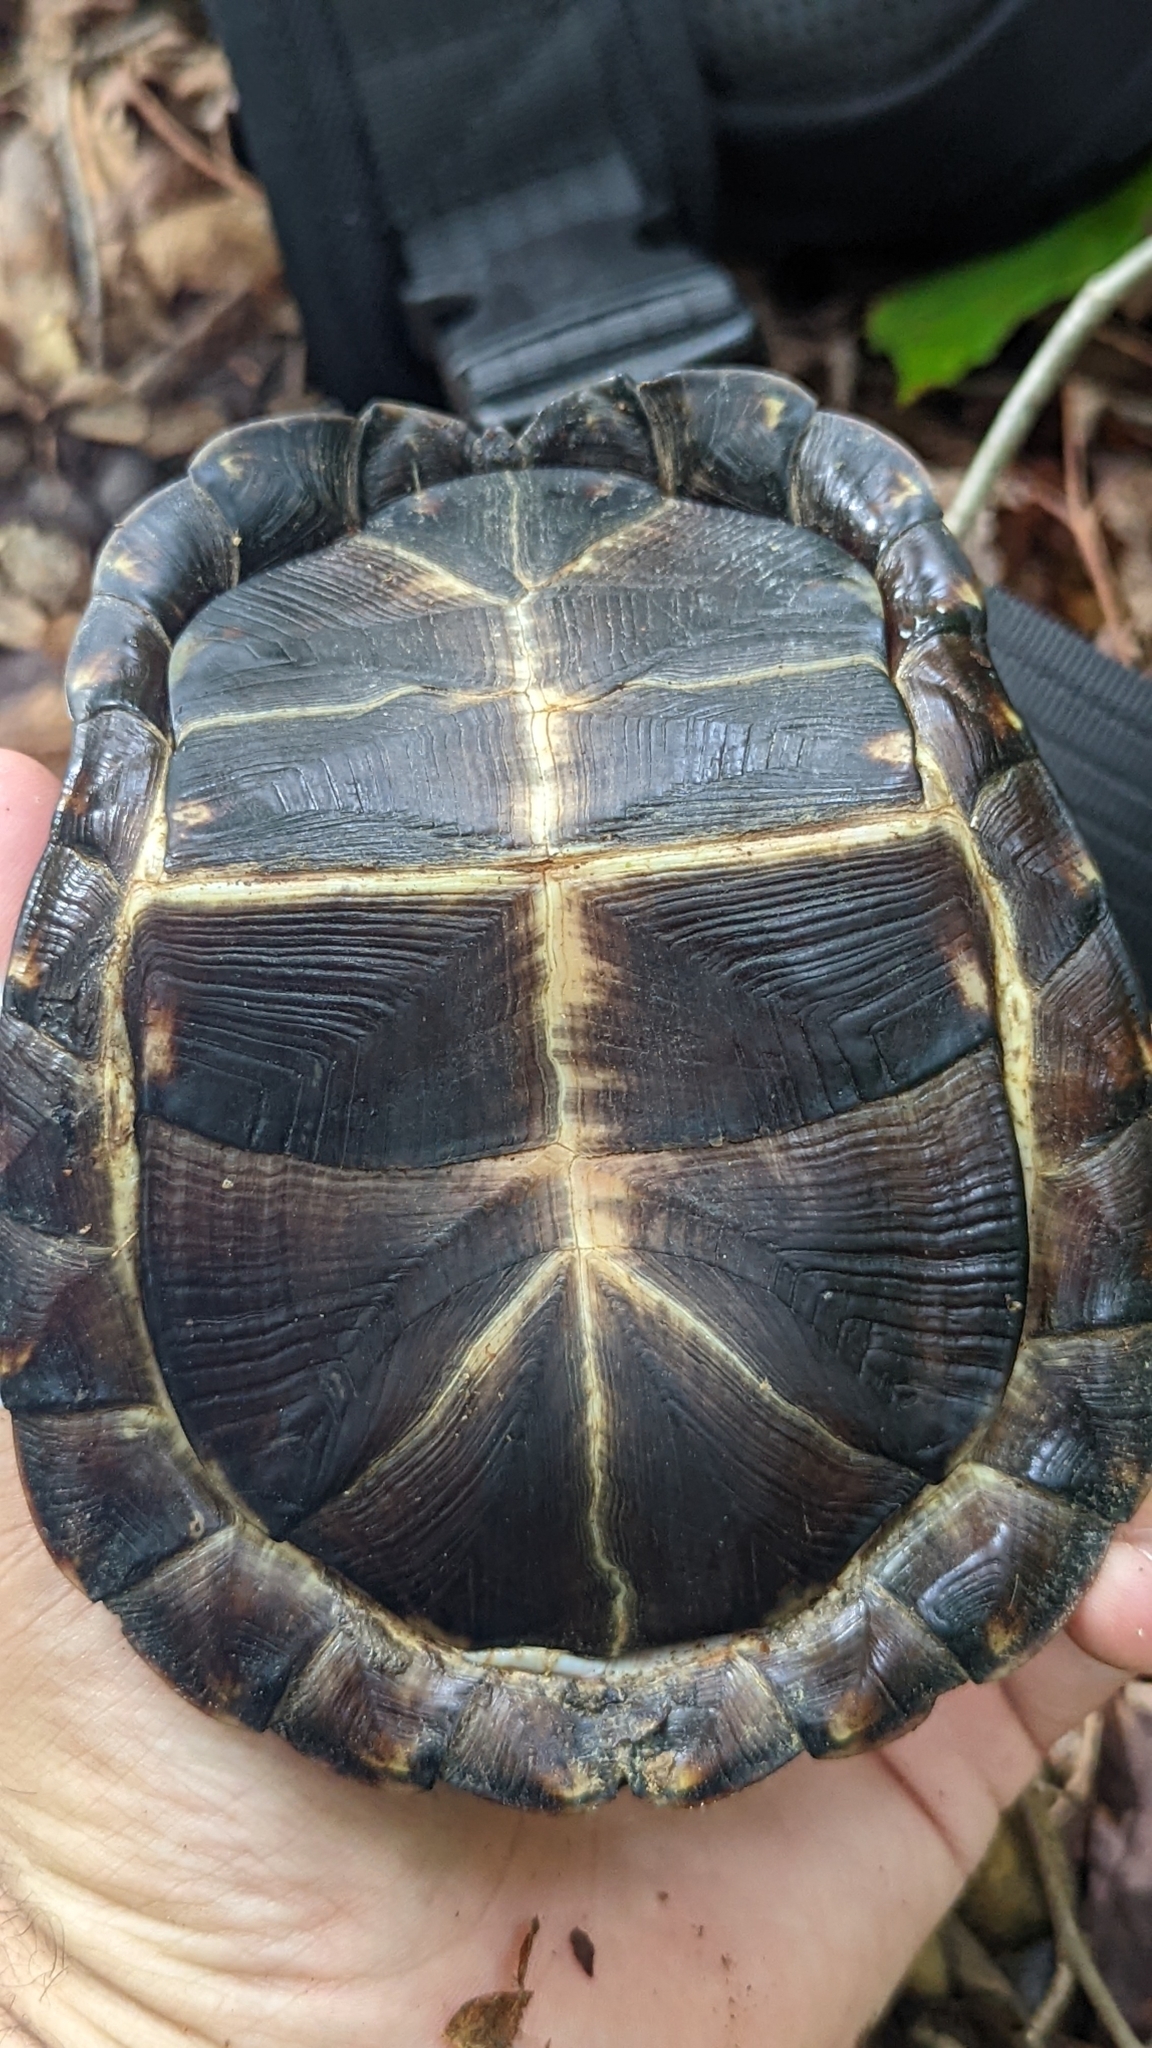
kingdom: Animalia
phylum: Chordata
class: Testudines
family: Emydidae
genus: Terrapene
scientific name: Terrapene carolina
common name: Common box turtle
